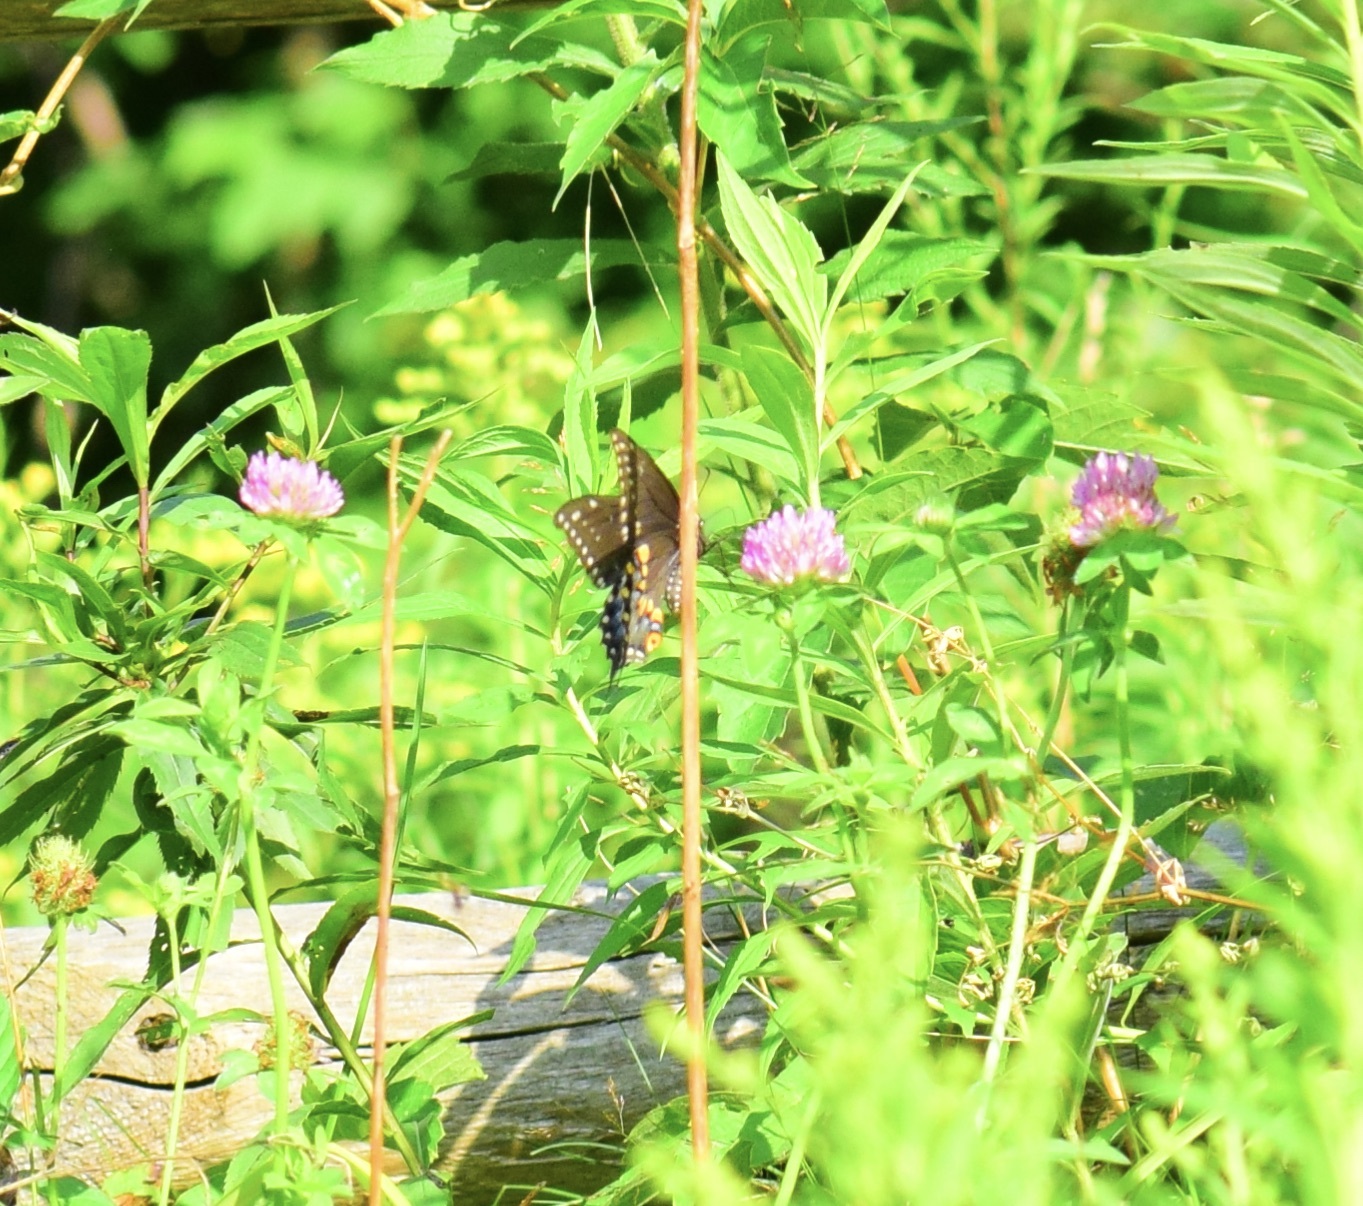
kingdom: Animalia
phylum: Arthropoda
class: Insecta
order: Lepidoptera
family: Papilionidae
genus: Papilio
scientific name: Papilio polyxenes
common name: Black swallowtail
